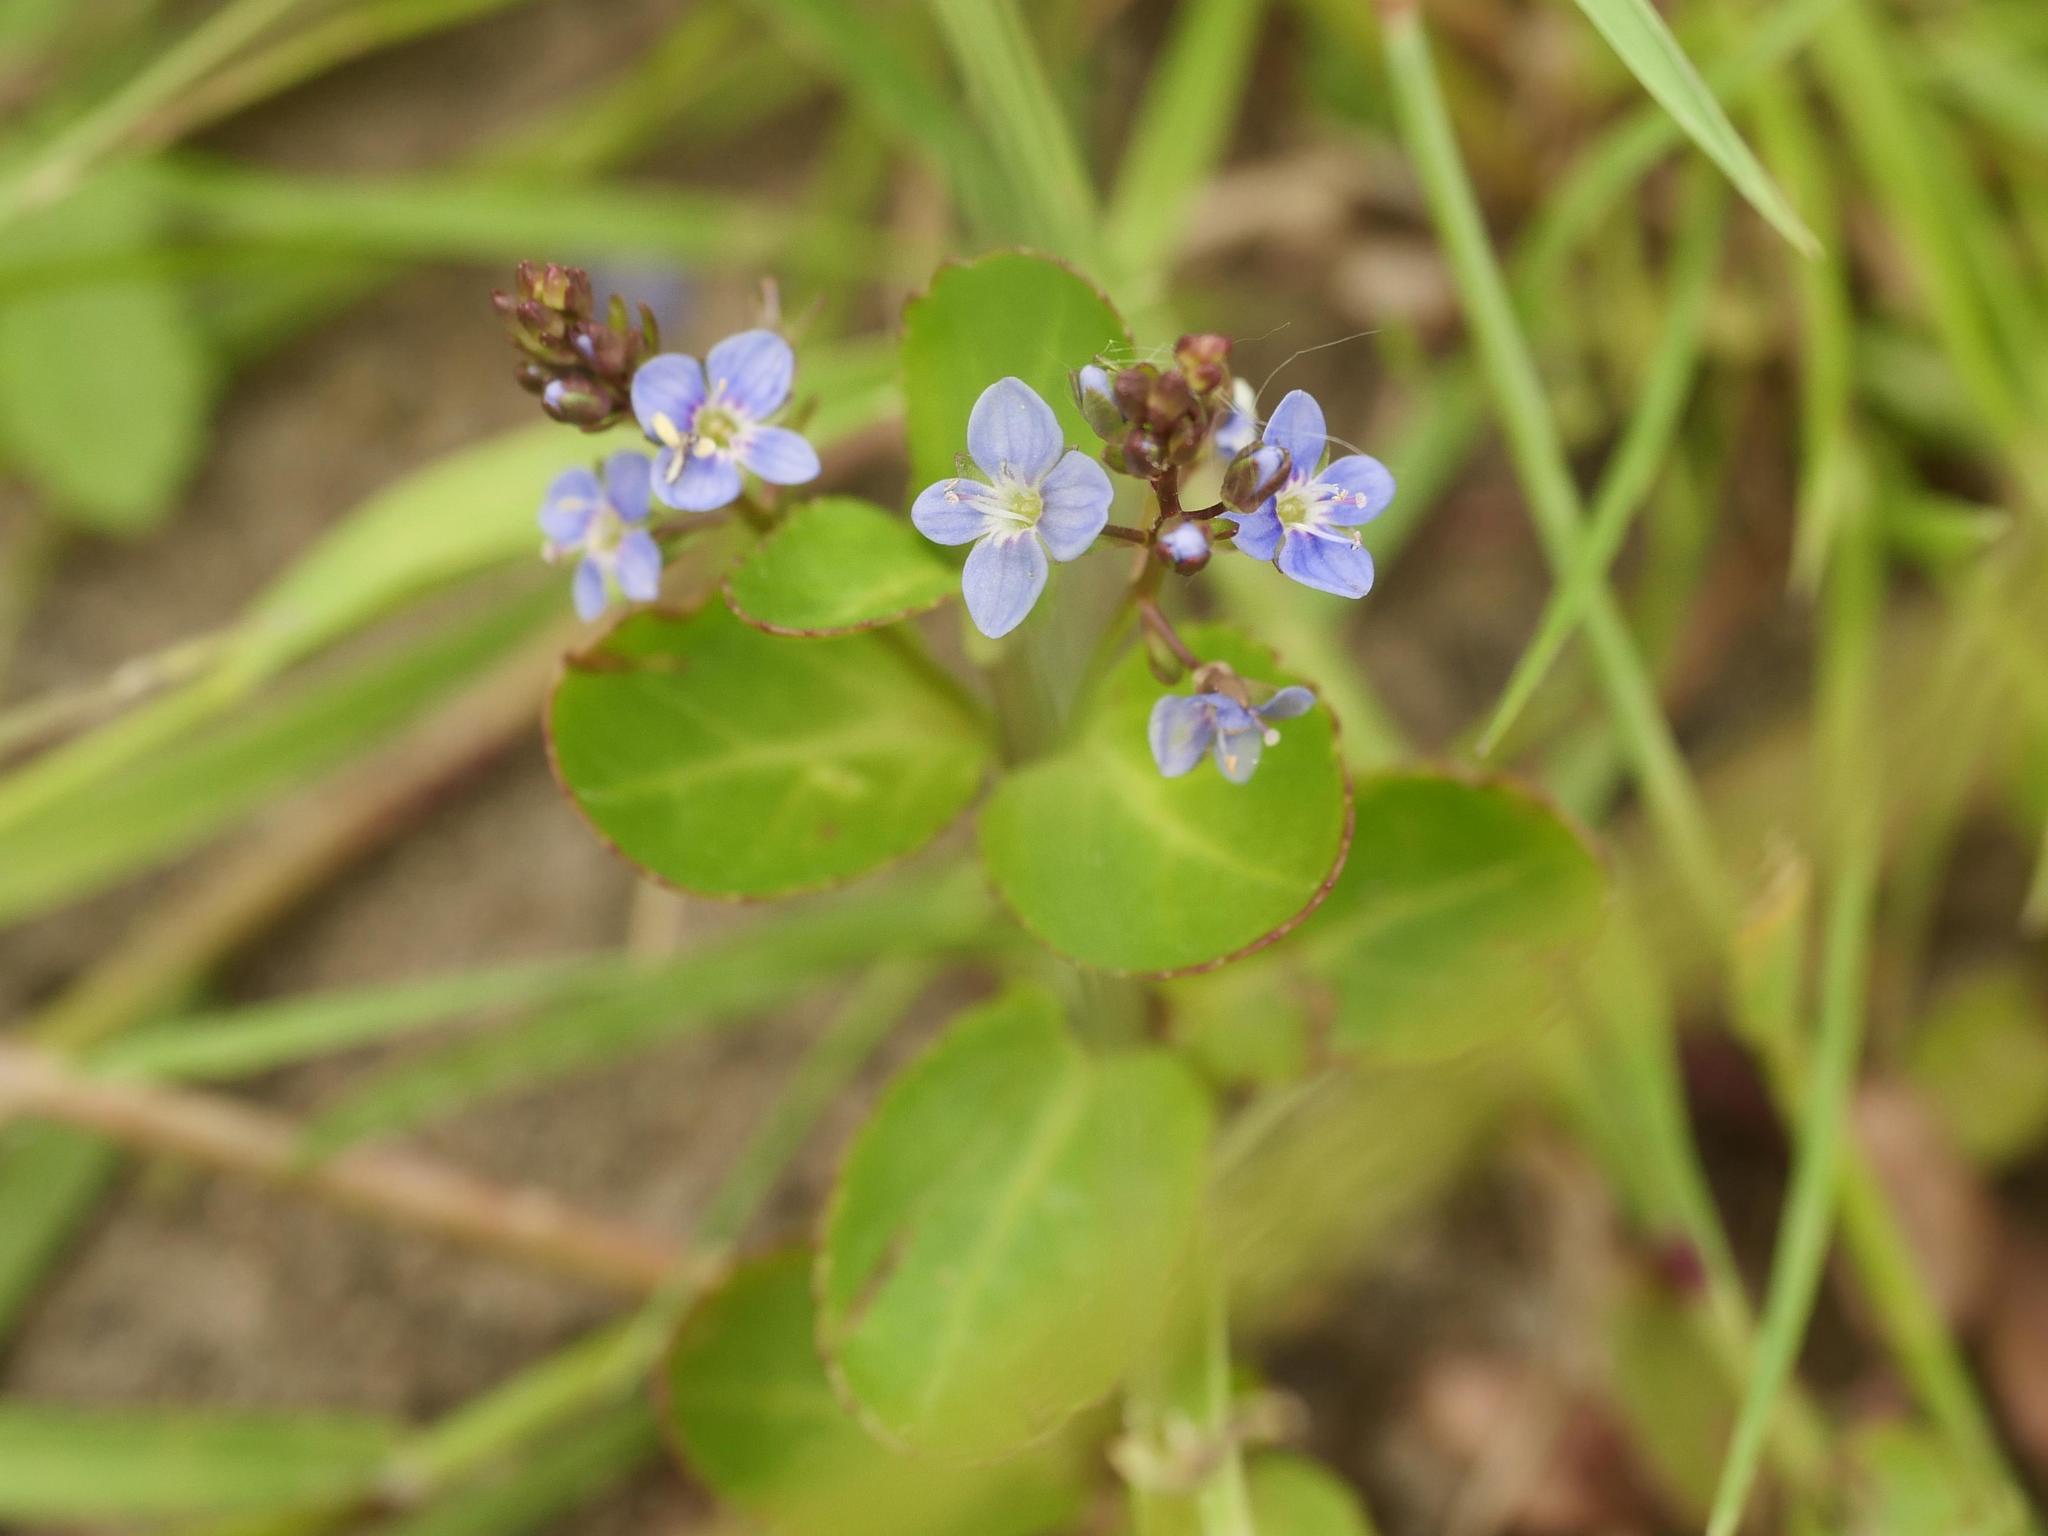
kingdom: Plantae
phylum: Tracheophyta
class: Magnoliopsida
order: Lamiales
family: Plantaginaceae
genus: Veronica
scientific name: Veronica beccabunga
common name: Brooklime
